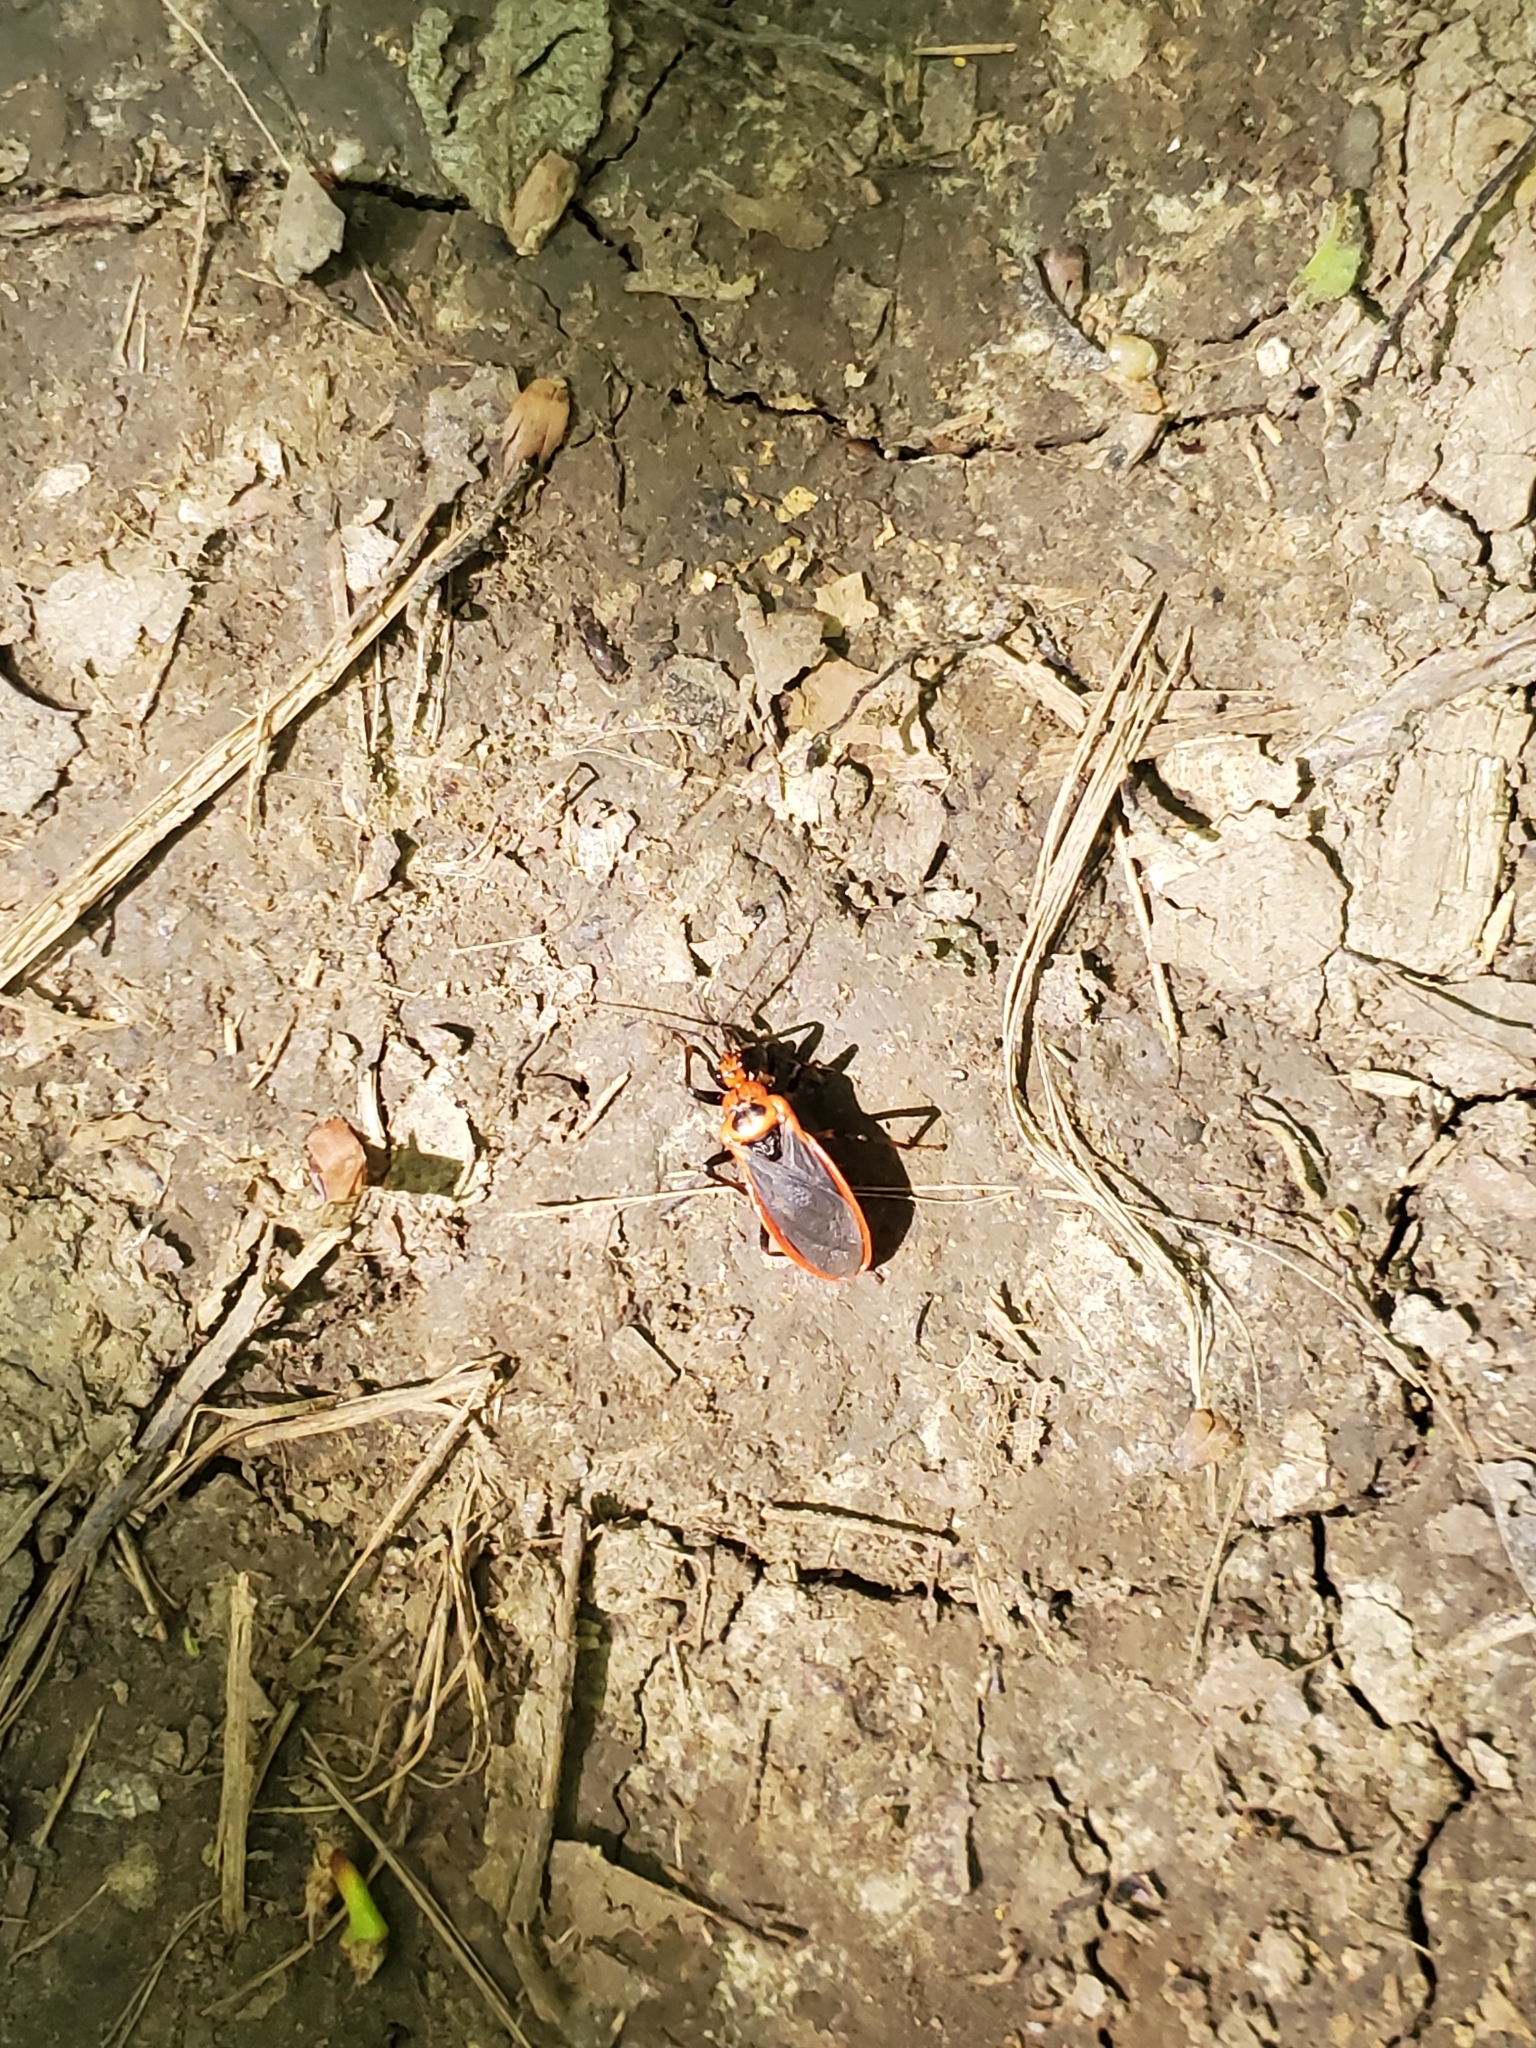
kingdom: Animalia
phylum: Arthropoda
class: Insecta
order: Hemiptera
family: Reduviidae
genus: Rhiginia
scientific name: Rhiginia cruciata
